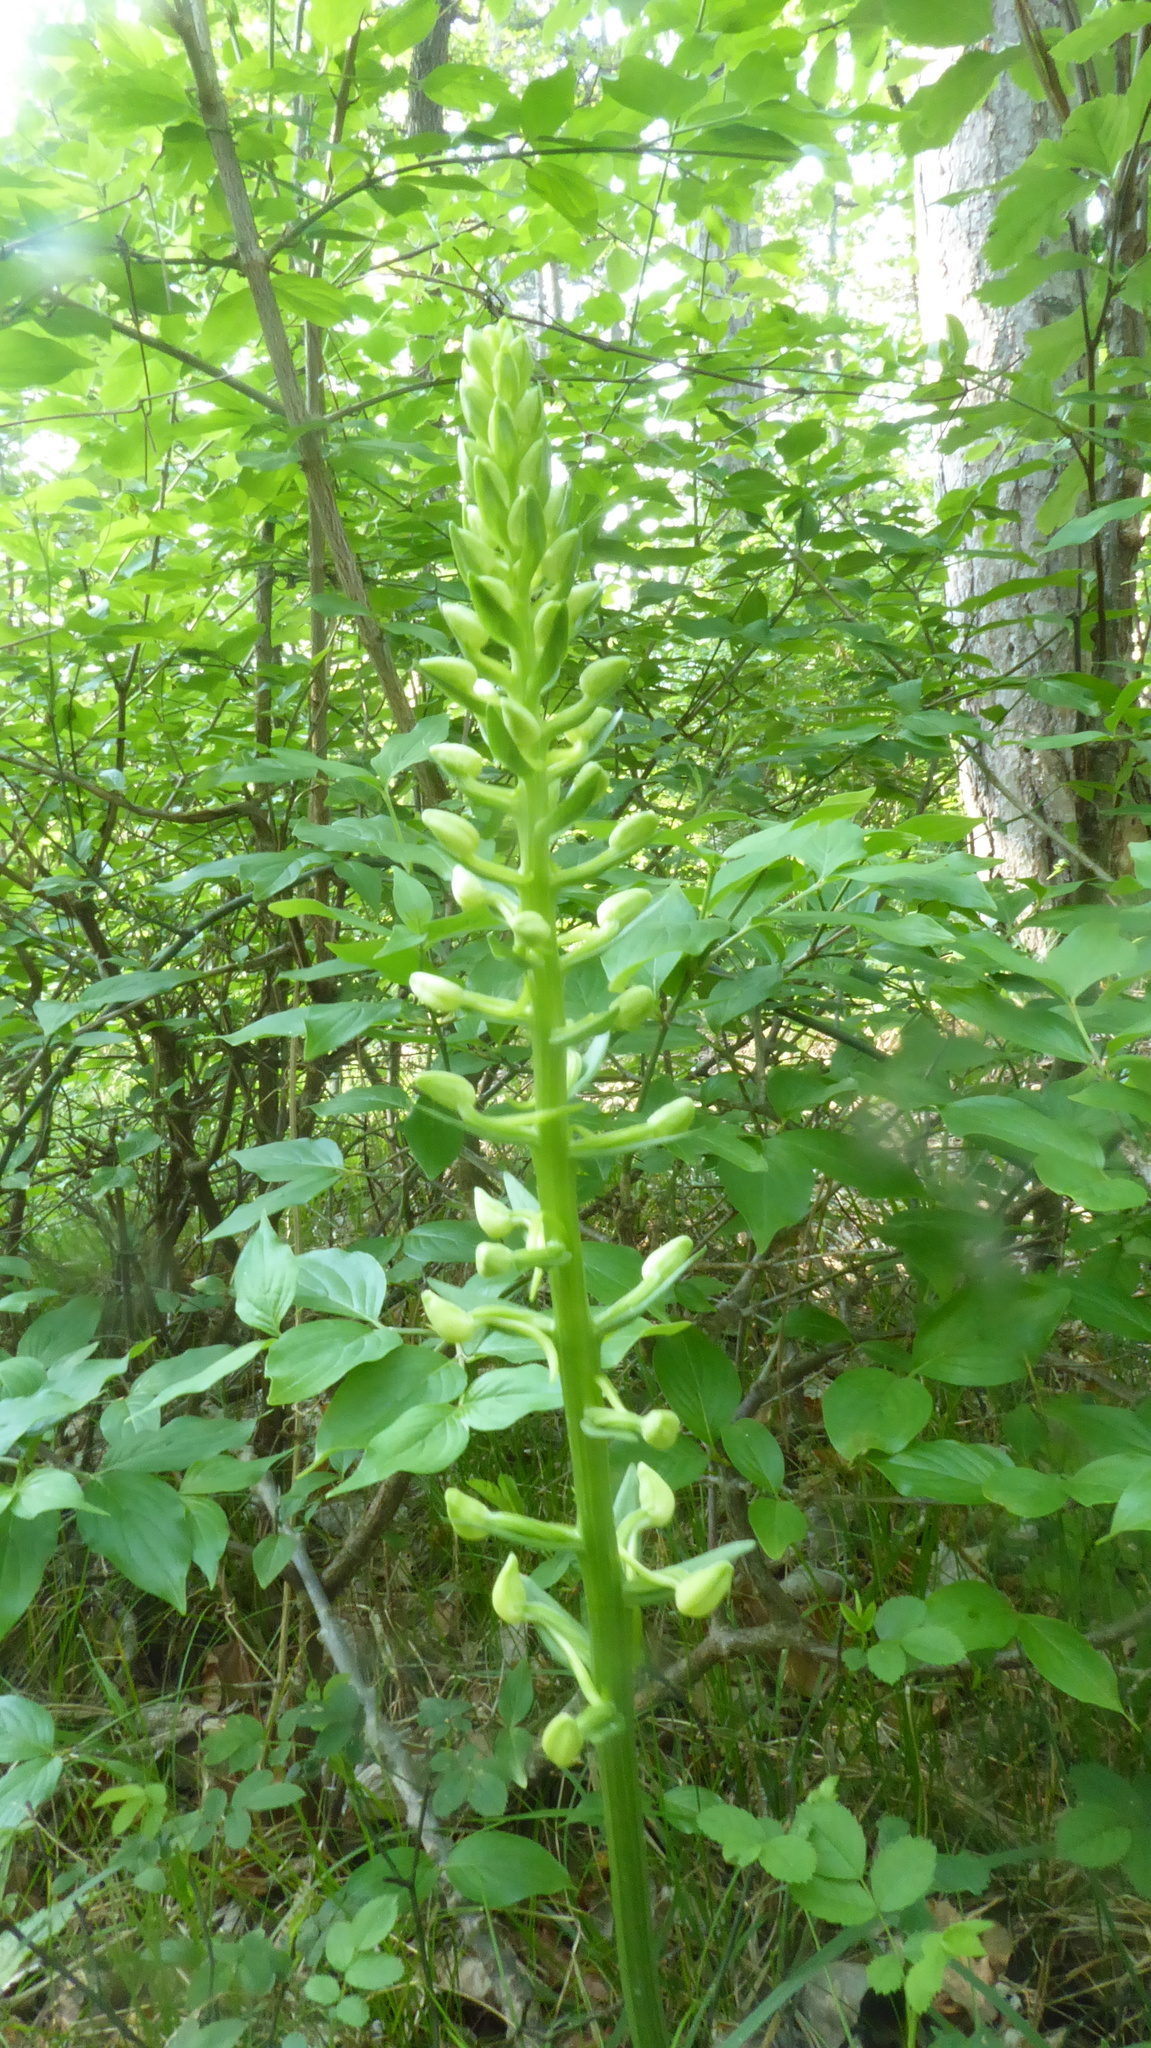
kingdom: Plantae
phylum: Tracheophyta
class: Liliopsida
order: Asparagales
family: Orchidaceae
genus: Platanthera
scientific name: Platanthera bifolia
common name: Lesser butterfly-orchid
